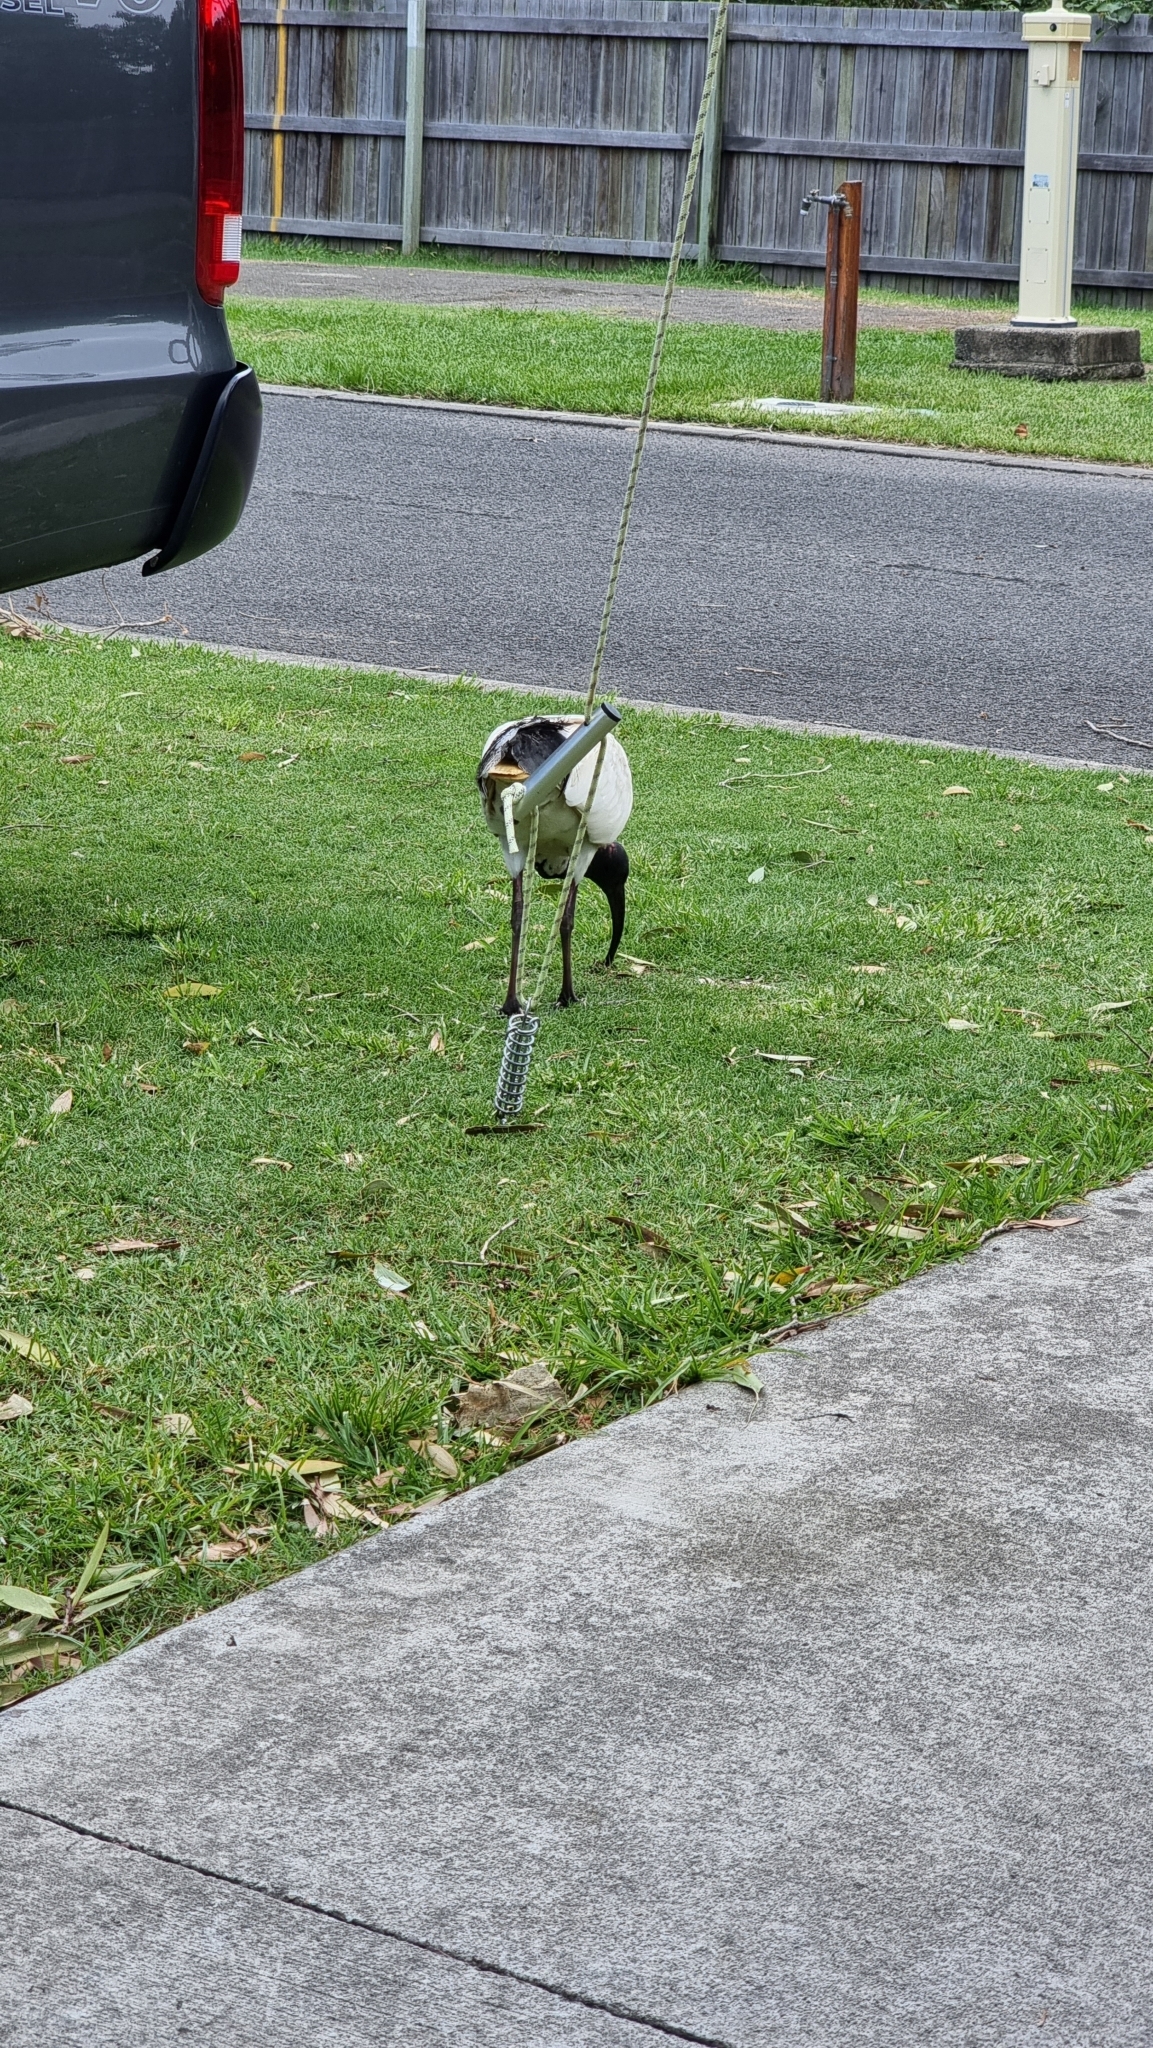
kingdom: Animalia
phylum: Chordata
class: Aves
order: Pelecaniformes
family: Threskiornithidae
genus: Threskiornis
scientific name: Threskiornis molucca
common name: Australian white ibis
